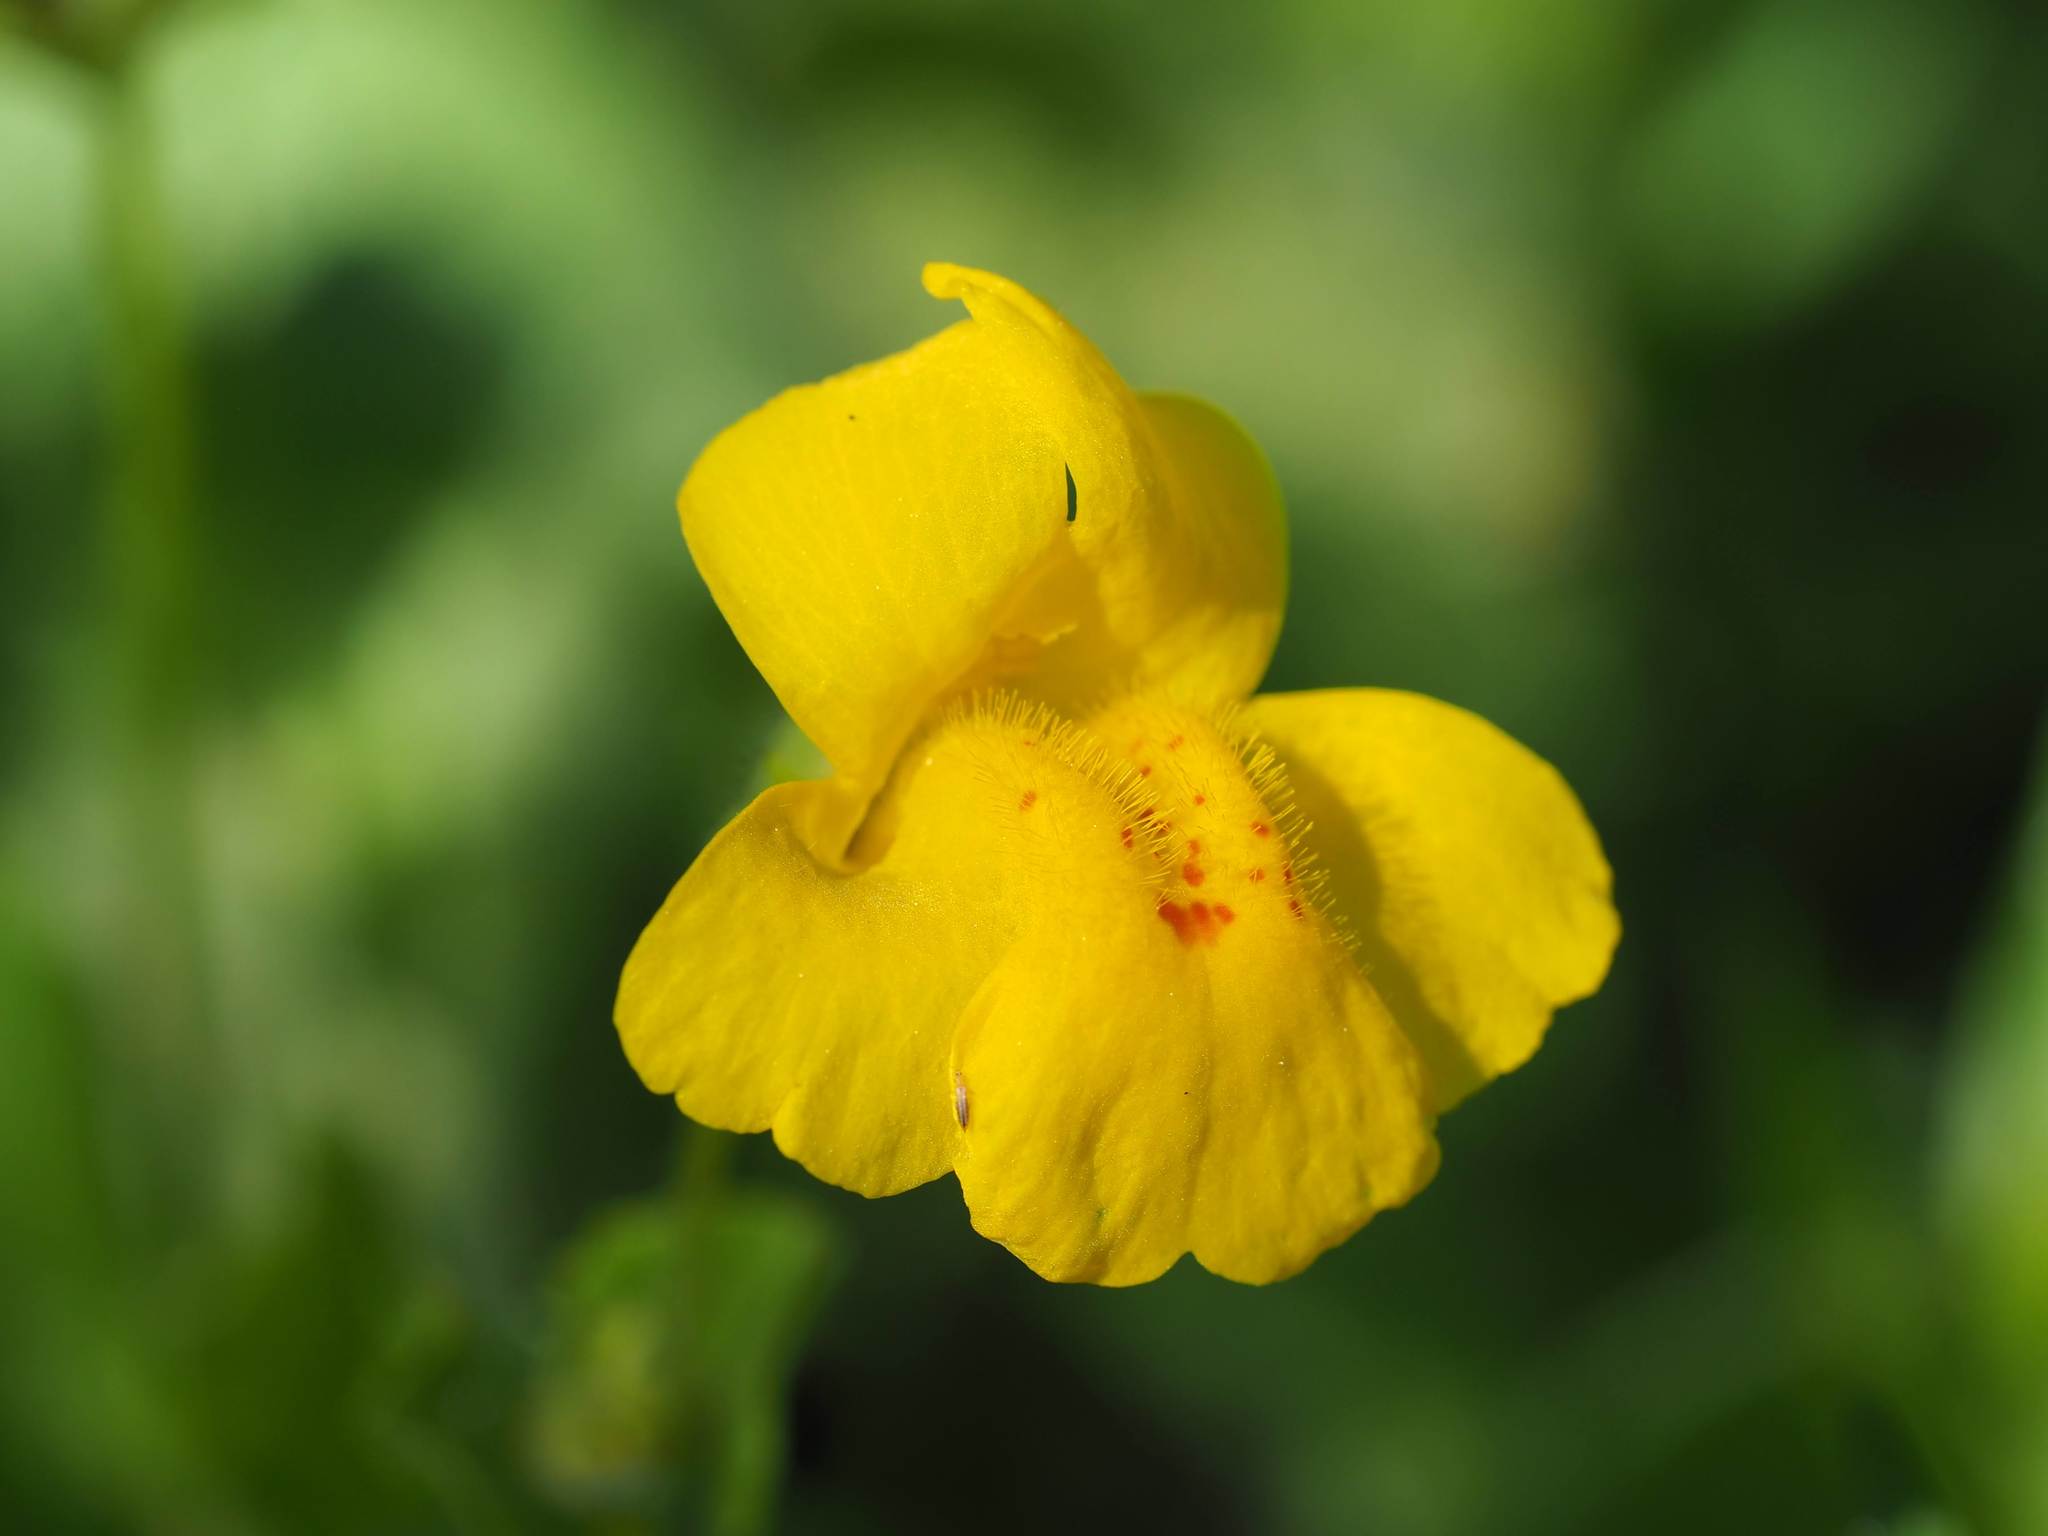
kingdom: Plantae
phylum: Tracheophyta
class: Magnoliopsida
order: Lamiales
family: Phrymaceae
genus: Erythranthe
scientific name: Erythranthe corallina
